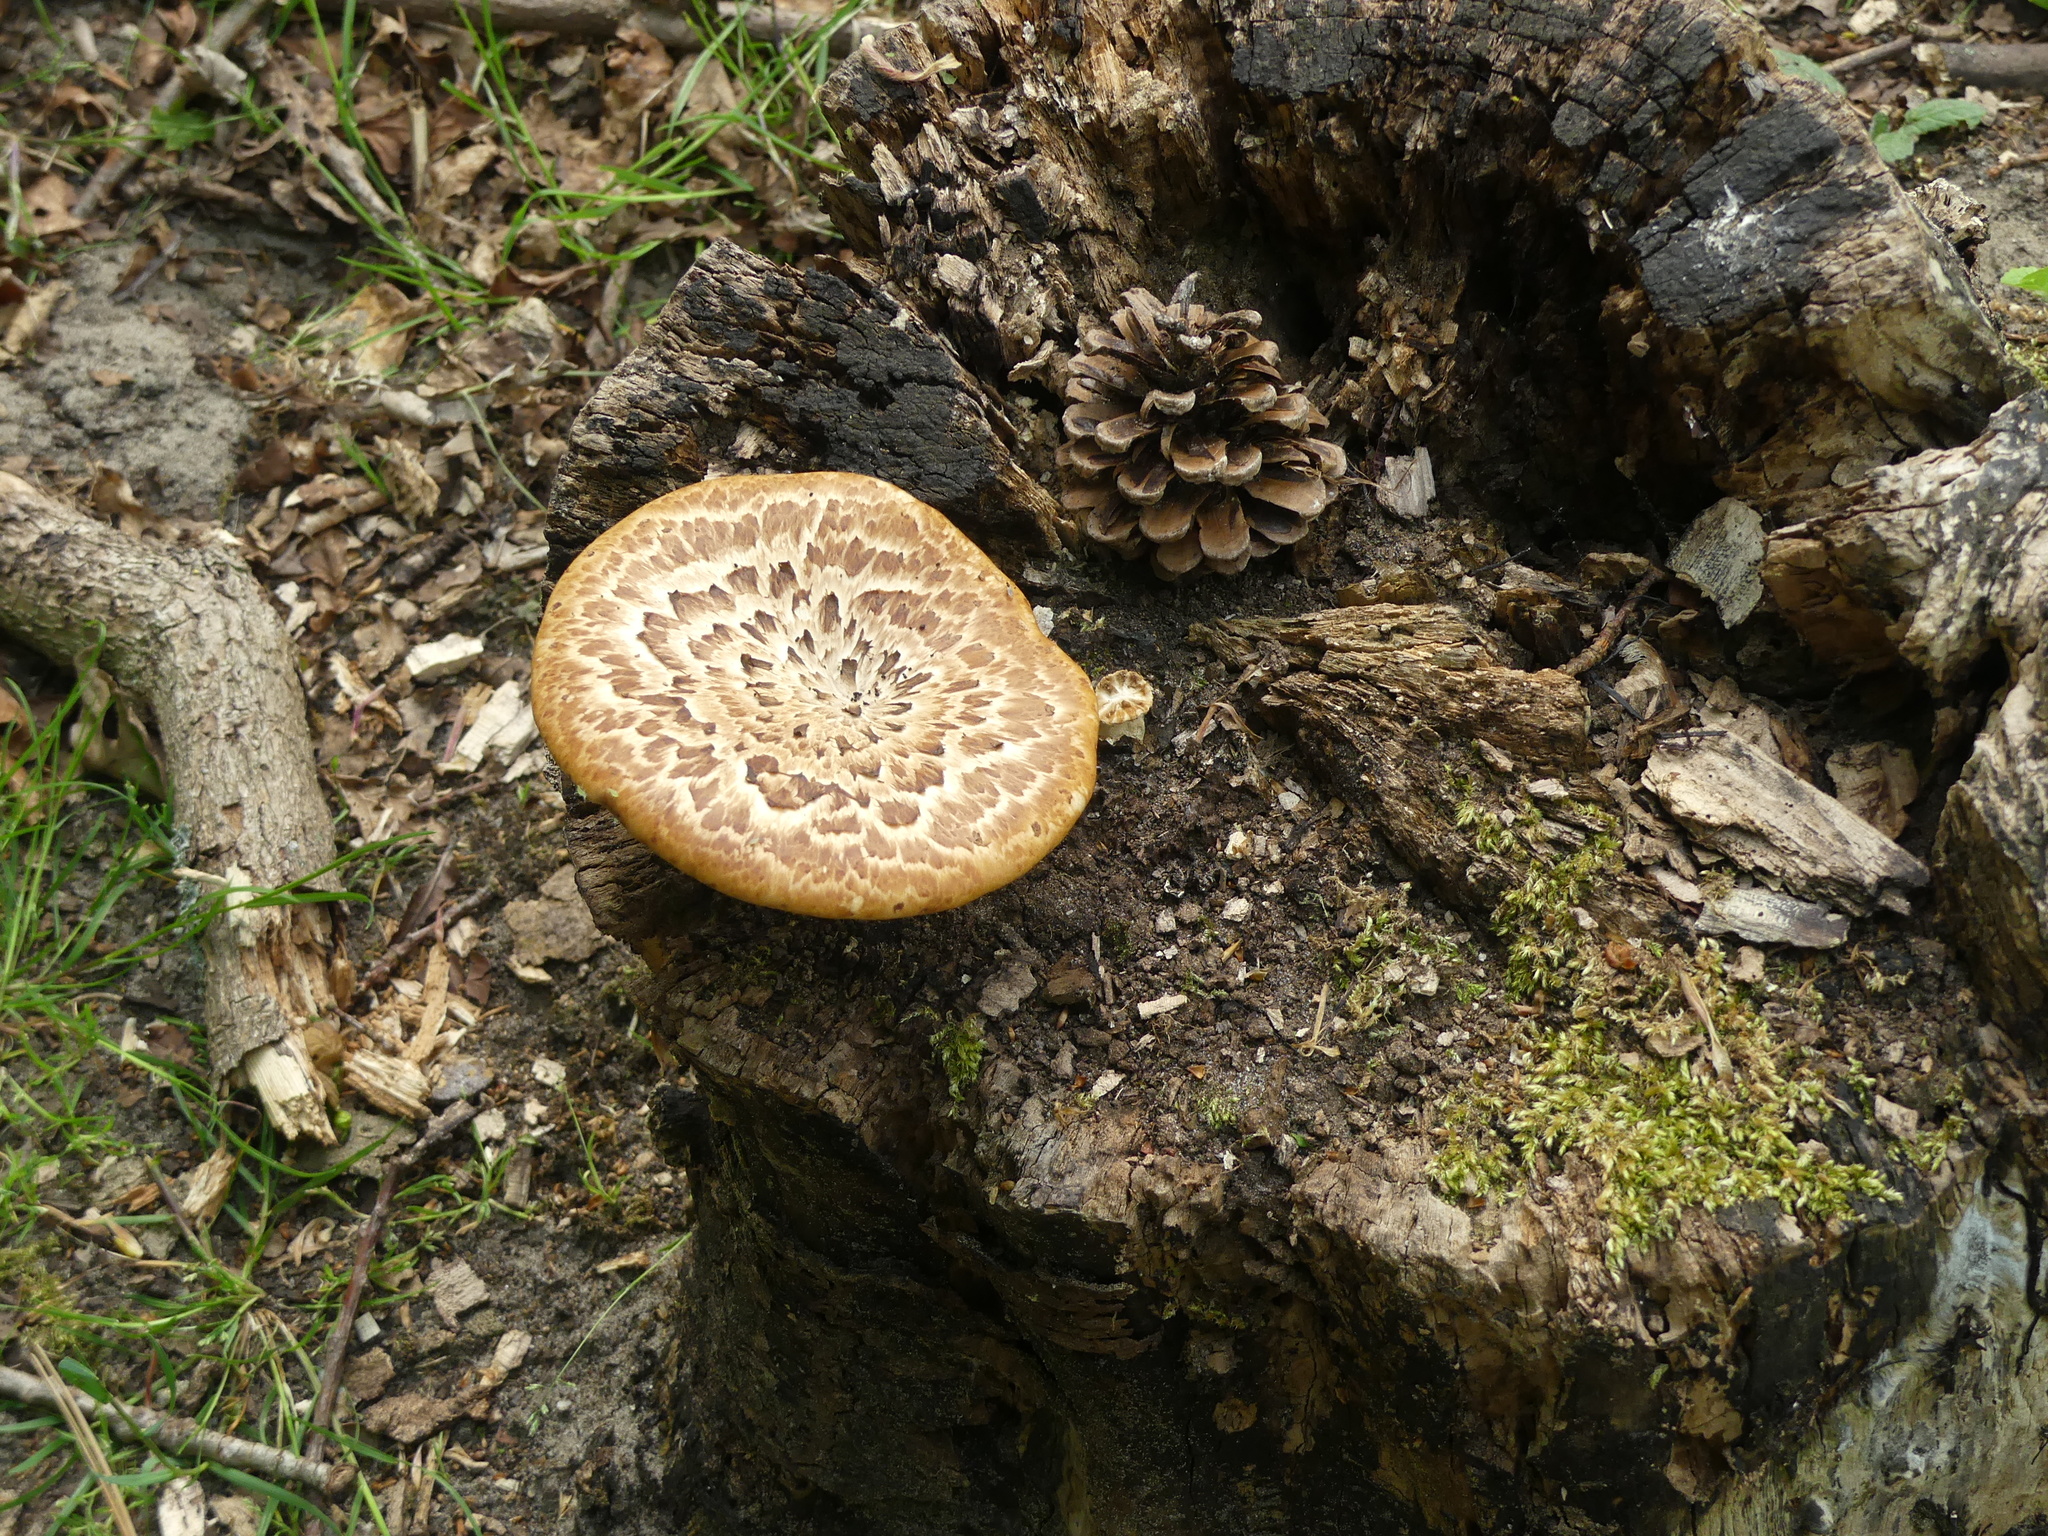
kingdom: Fungi
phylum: Basidiomycota
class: Agaricomycetes
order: Polyporales
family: Polyporaceae
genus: Cerioporus
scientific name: Cerioporus squamosus
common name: Dryad's saddle
